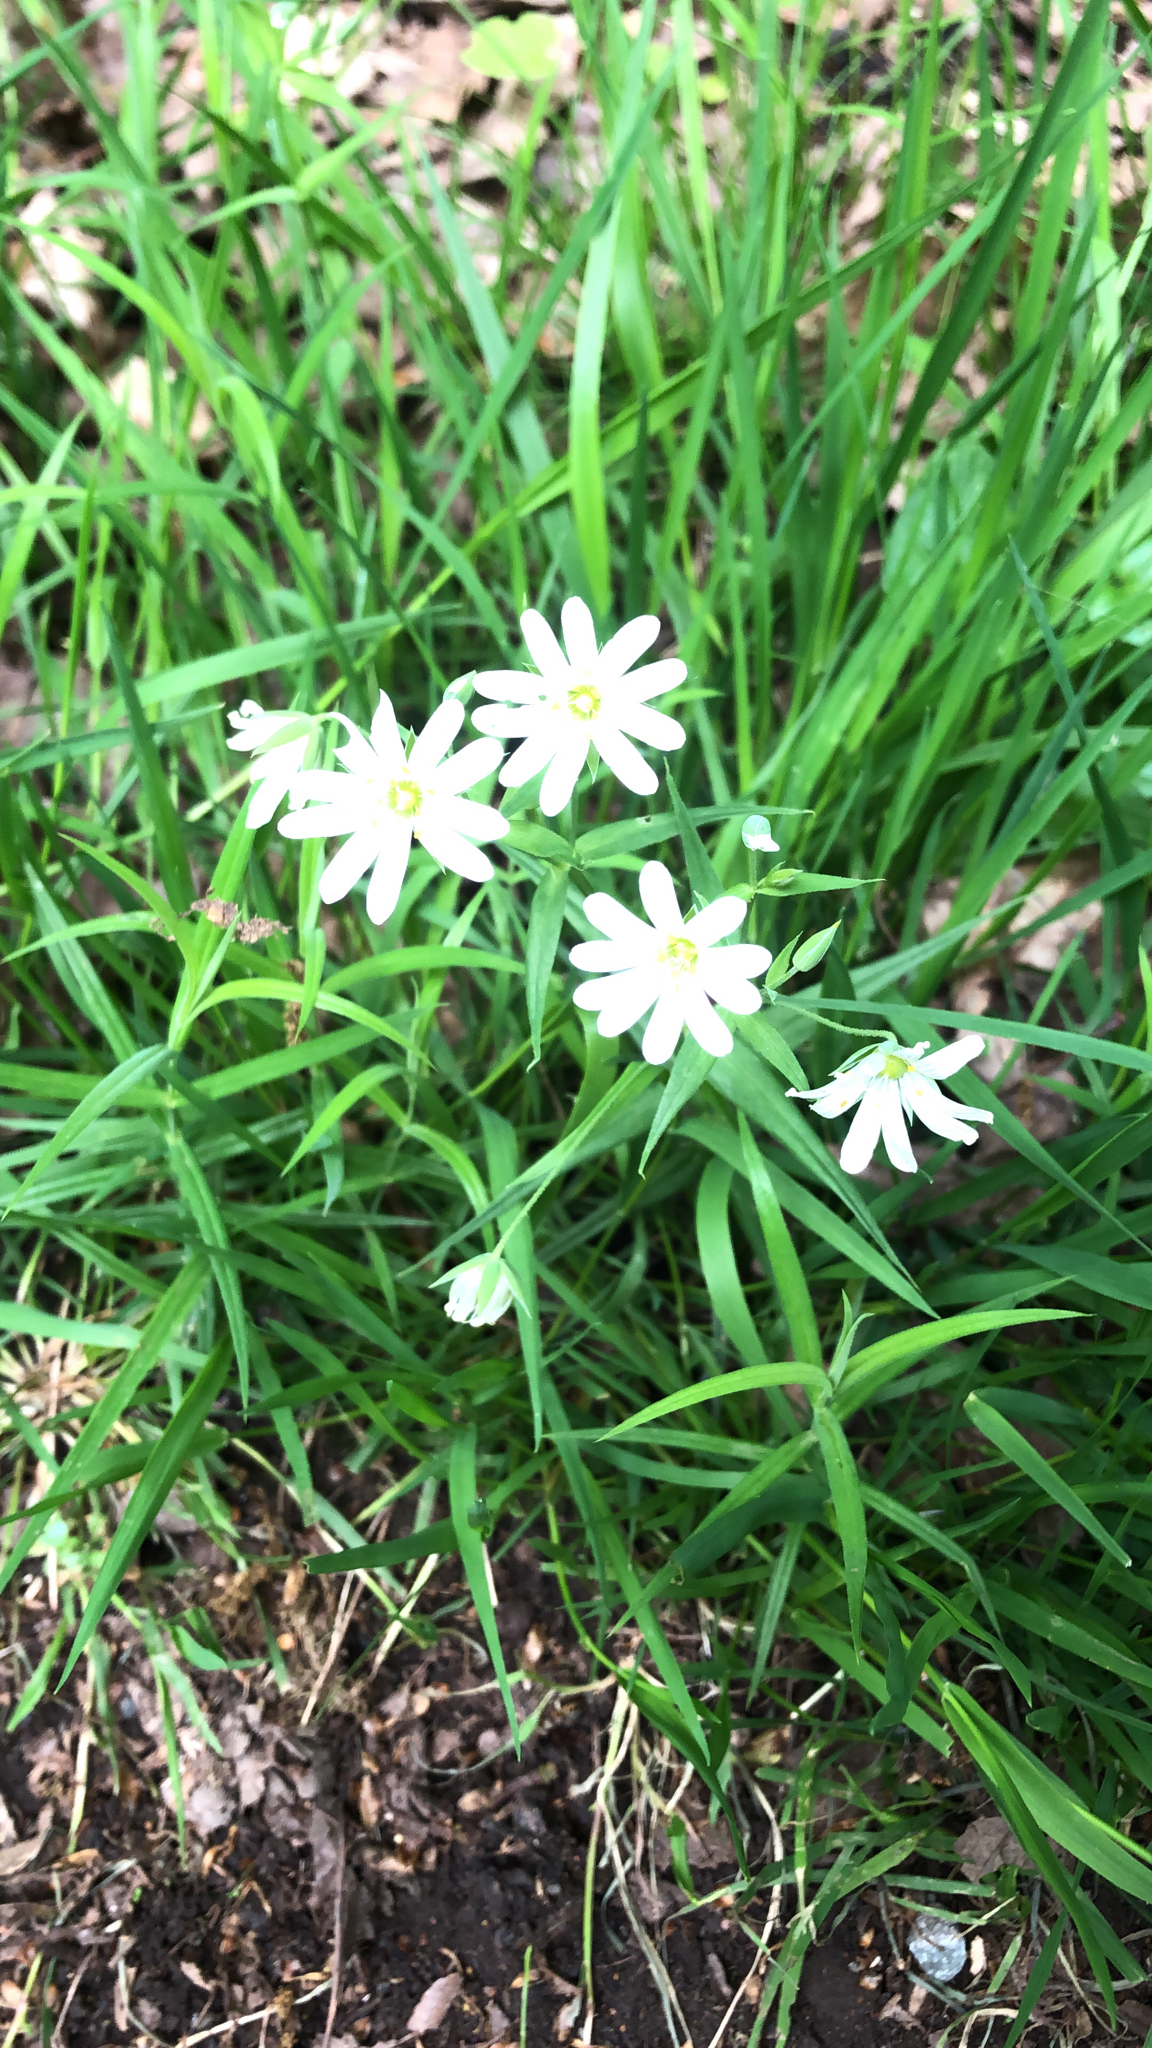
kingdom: Plantae
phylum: Tracheophyta
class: Magnoliopsida
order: Caryophyllales
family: Caryophyllaceae
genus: Rabelera
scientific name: Rabelera holostea
